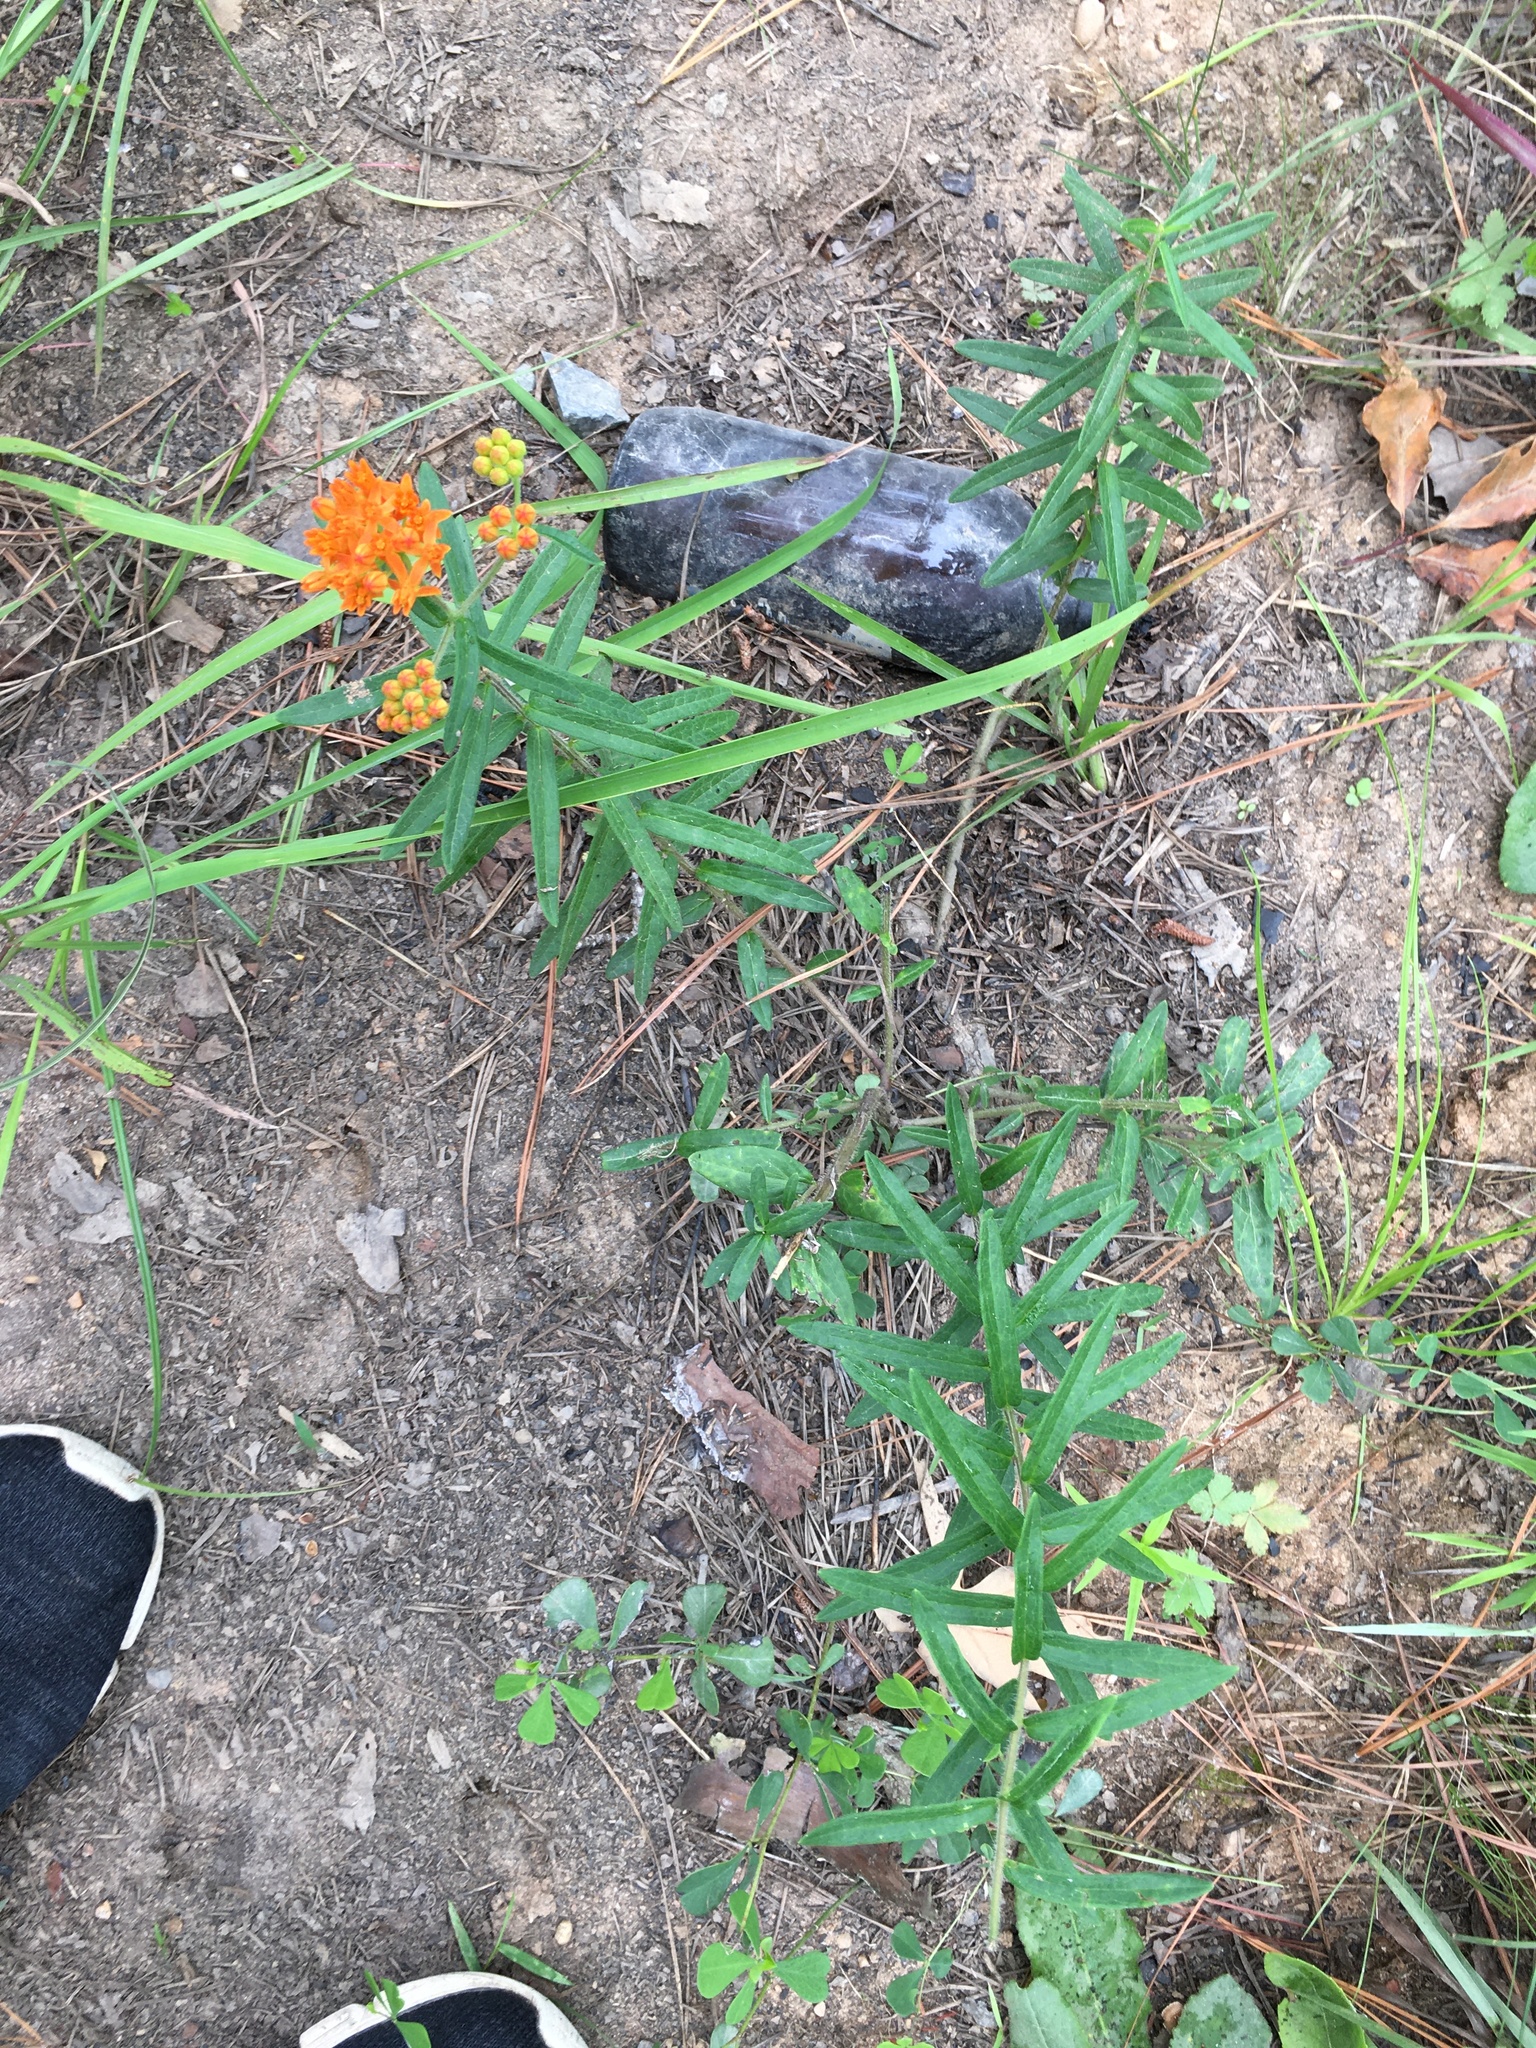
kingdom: Plantae
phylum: Tracheophyta
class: Magnoliopsida
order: Gentianales
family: Apocynaceae
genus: Asclepias
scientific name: Asclepias tuberosa
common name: Butterfly milkweed
